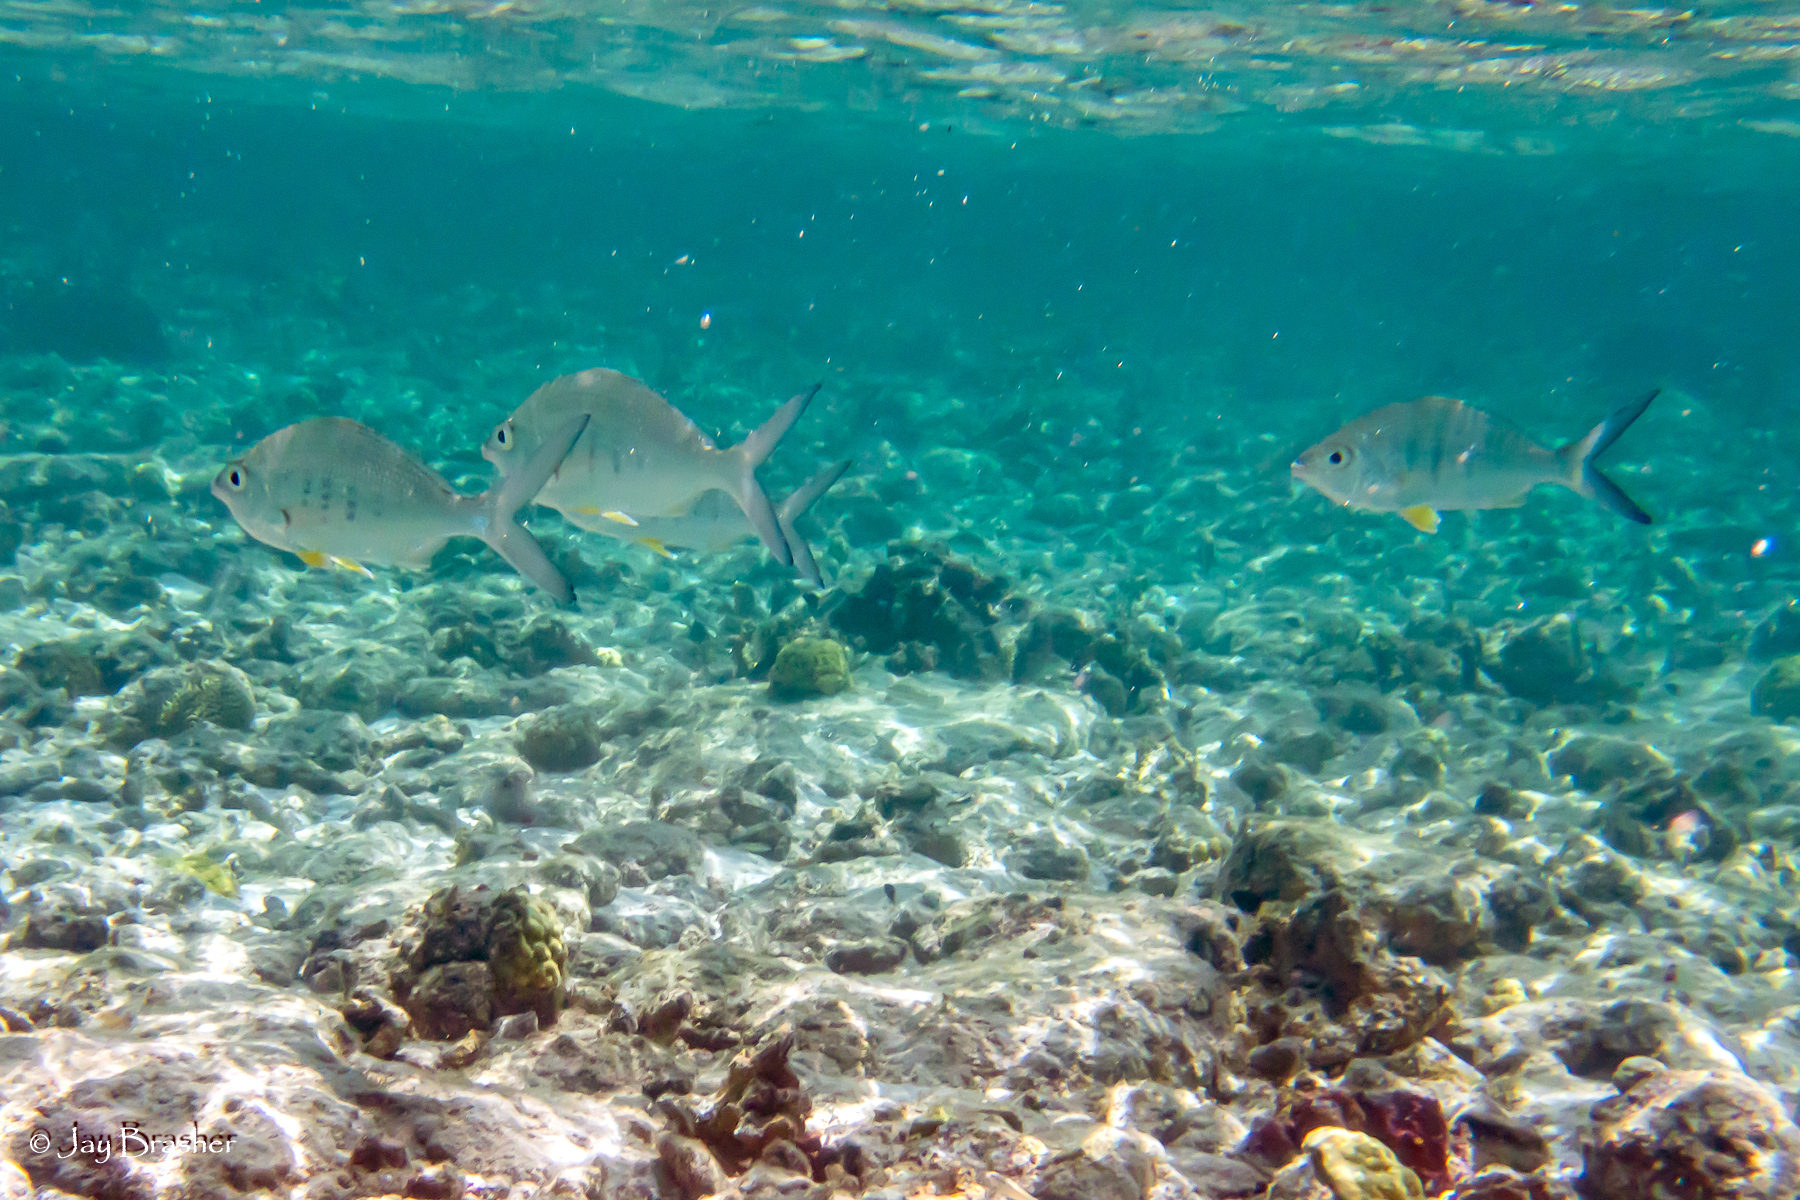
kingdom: Animalia
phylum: Chordata
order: Perciformes
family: Gerreidae
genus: Gerres
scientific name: Gerres cinereus
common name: Hedow
